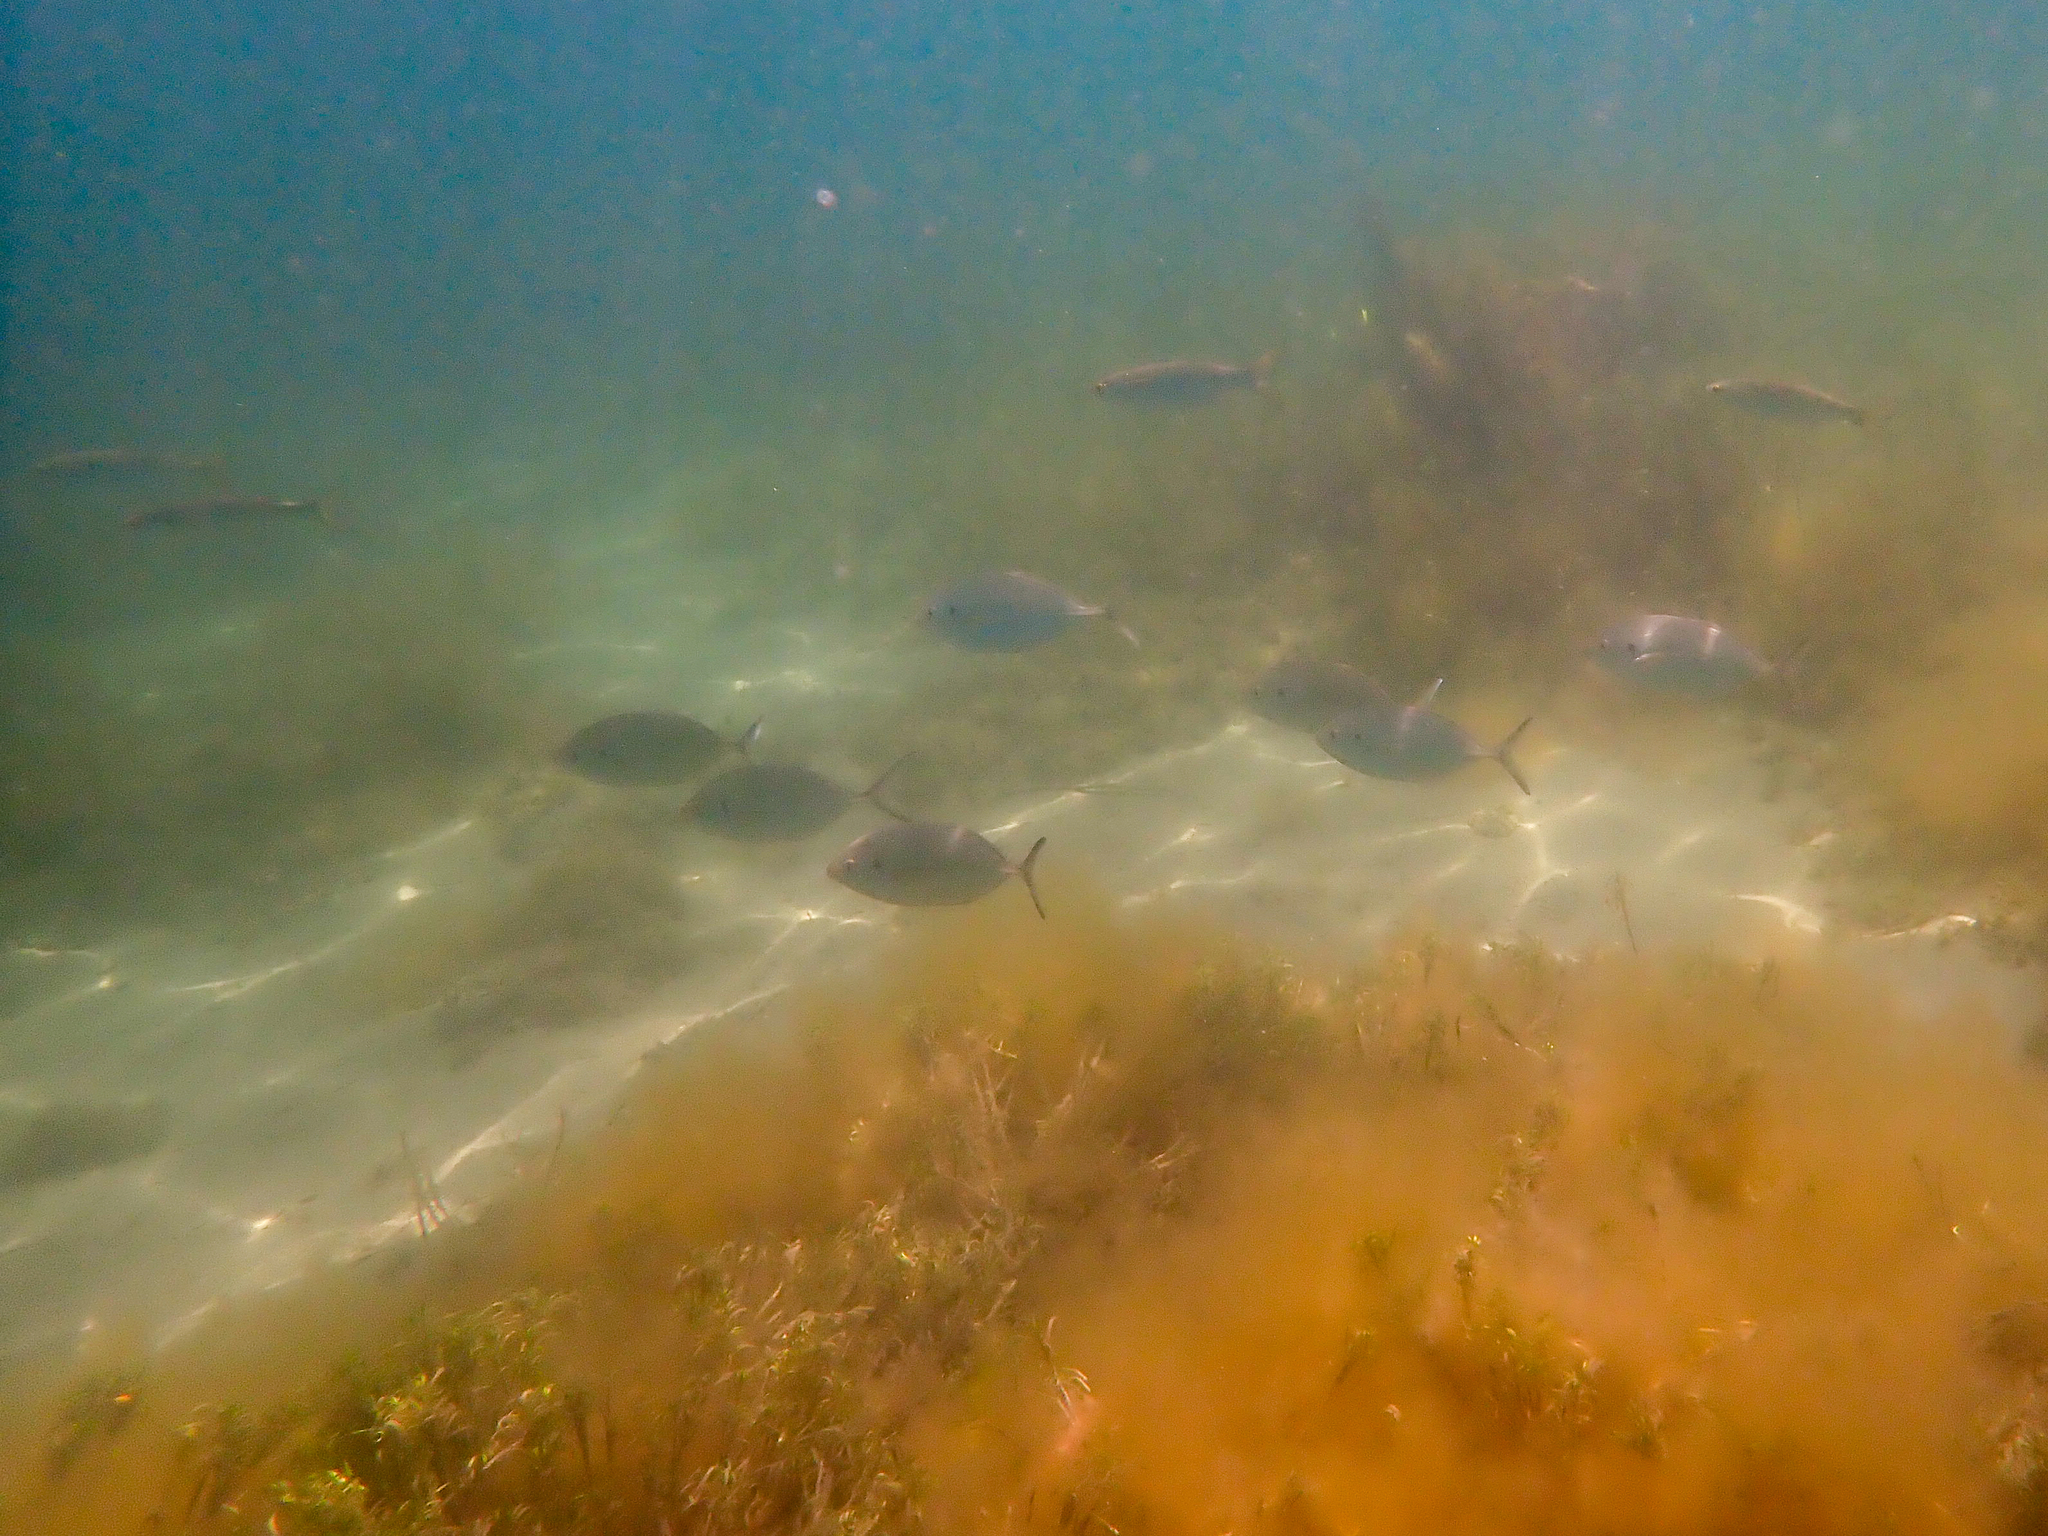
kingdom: Animalia
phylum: Chordata
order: Perciformes
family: Carangidae
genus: Pseudocaranx
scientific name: Pseudocaranx dentex
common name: White trevally
